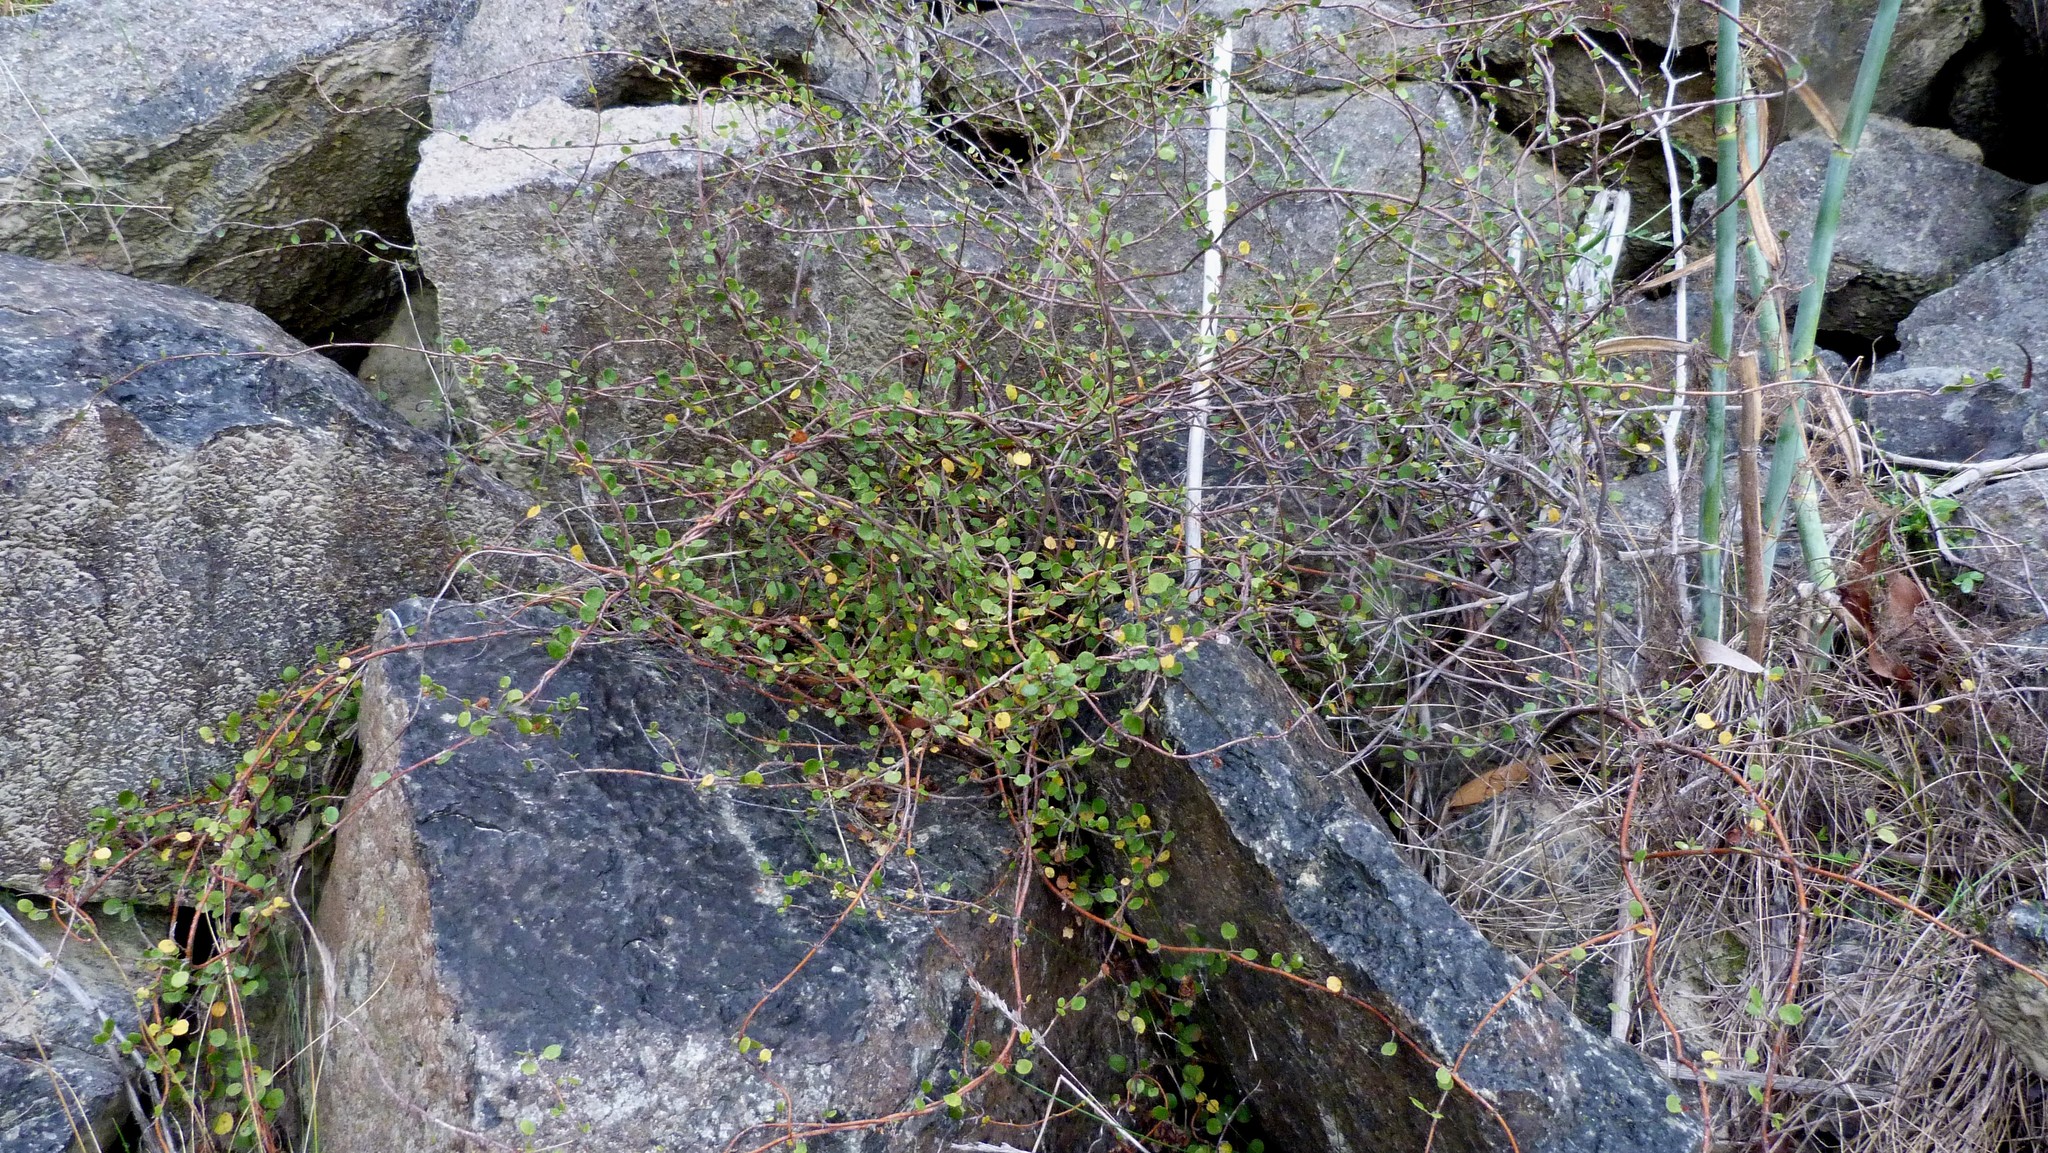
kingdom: Plantae
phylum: Tracheophyta
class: Magnoliopsida
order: Caryophyllales
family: Polygonaceae
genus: Muehlenbeckia
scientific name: Muehlenbeckia complexa
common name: Wireplant
